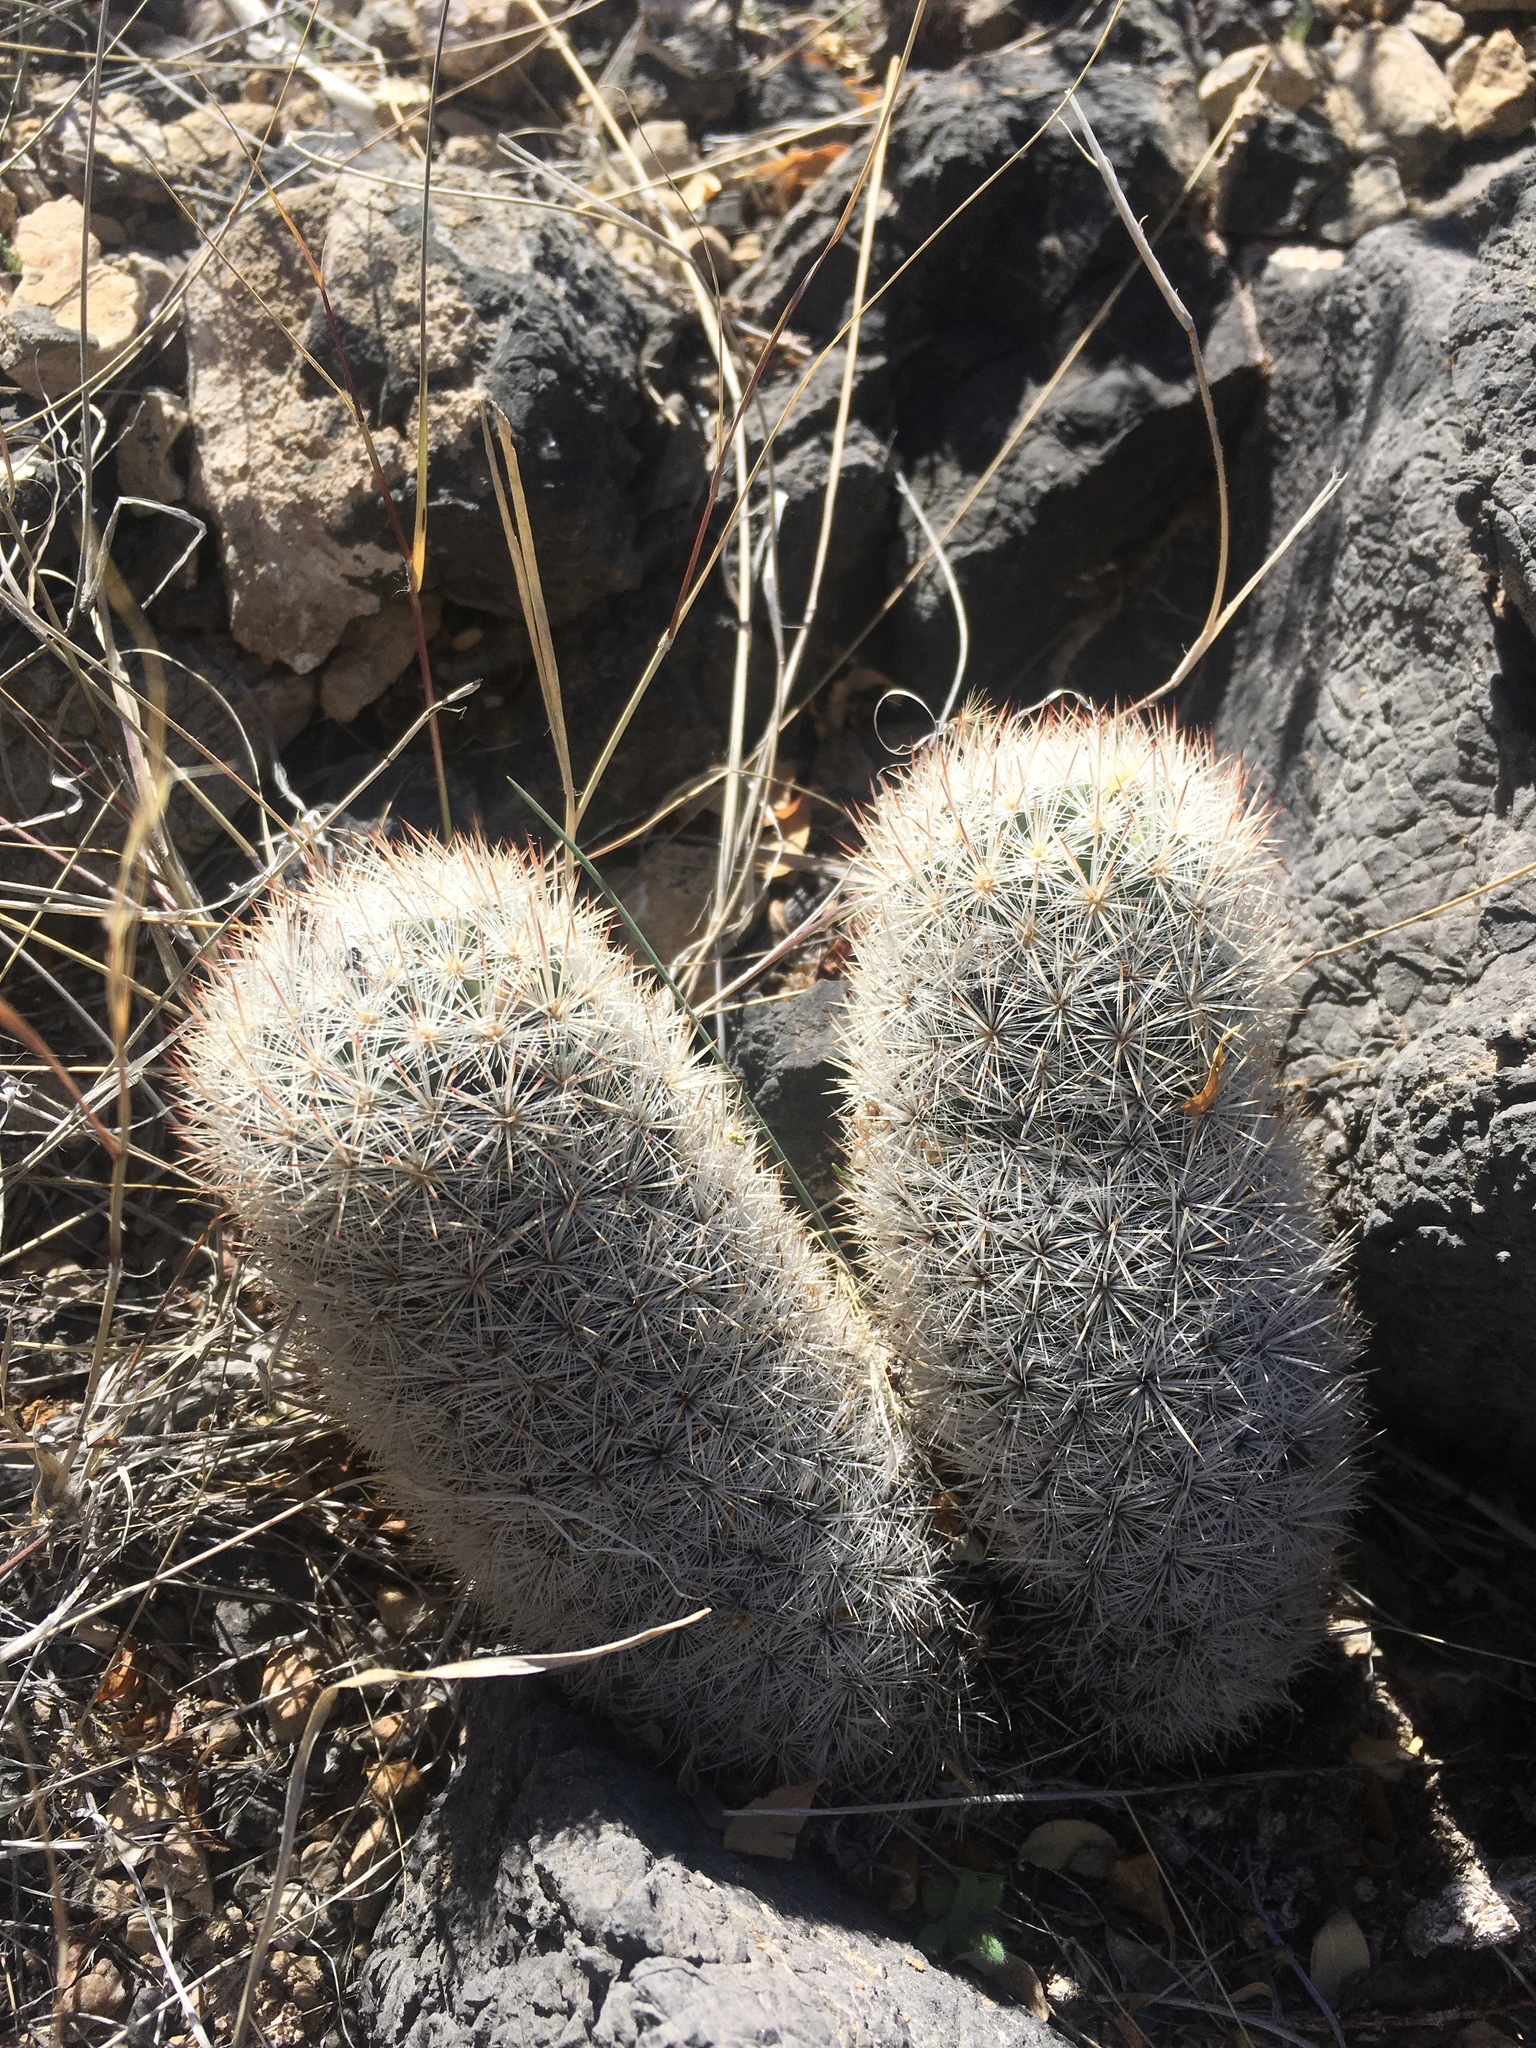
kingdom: Plantae
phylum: Tracheophyta
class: Magnoliopsida
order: Caryophyllales
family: Cactaceae
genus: Pelecyphora
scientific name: Pelecyphora sneedii
